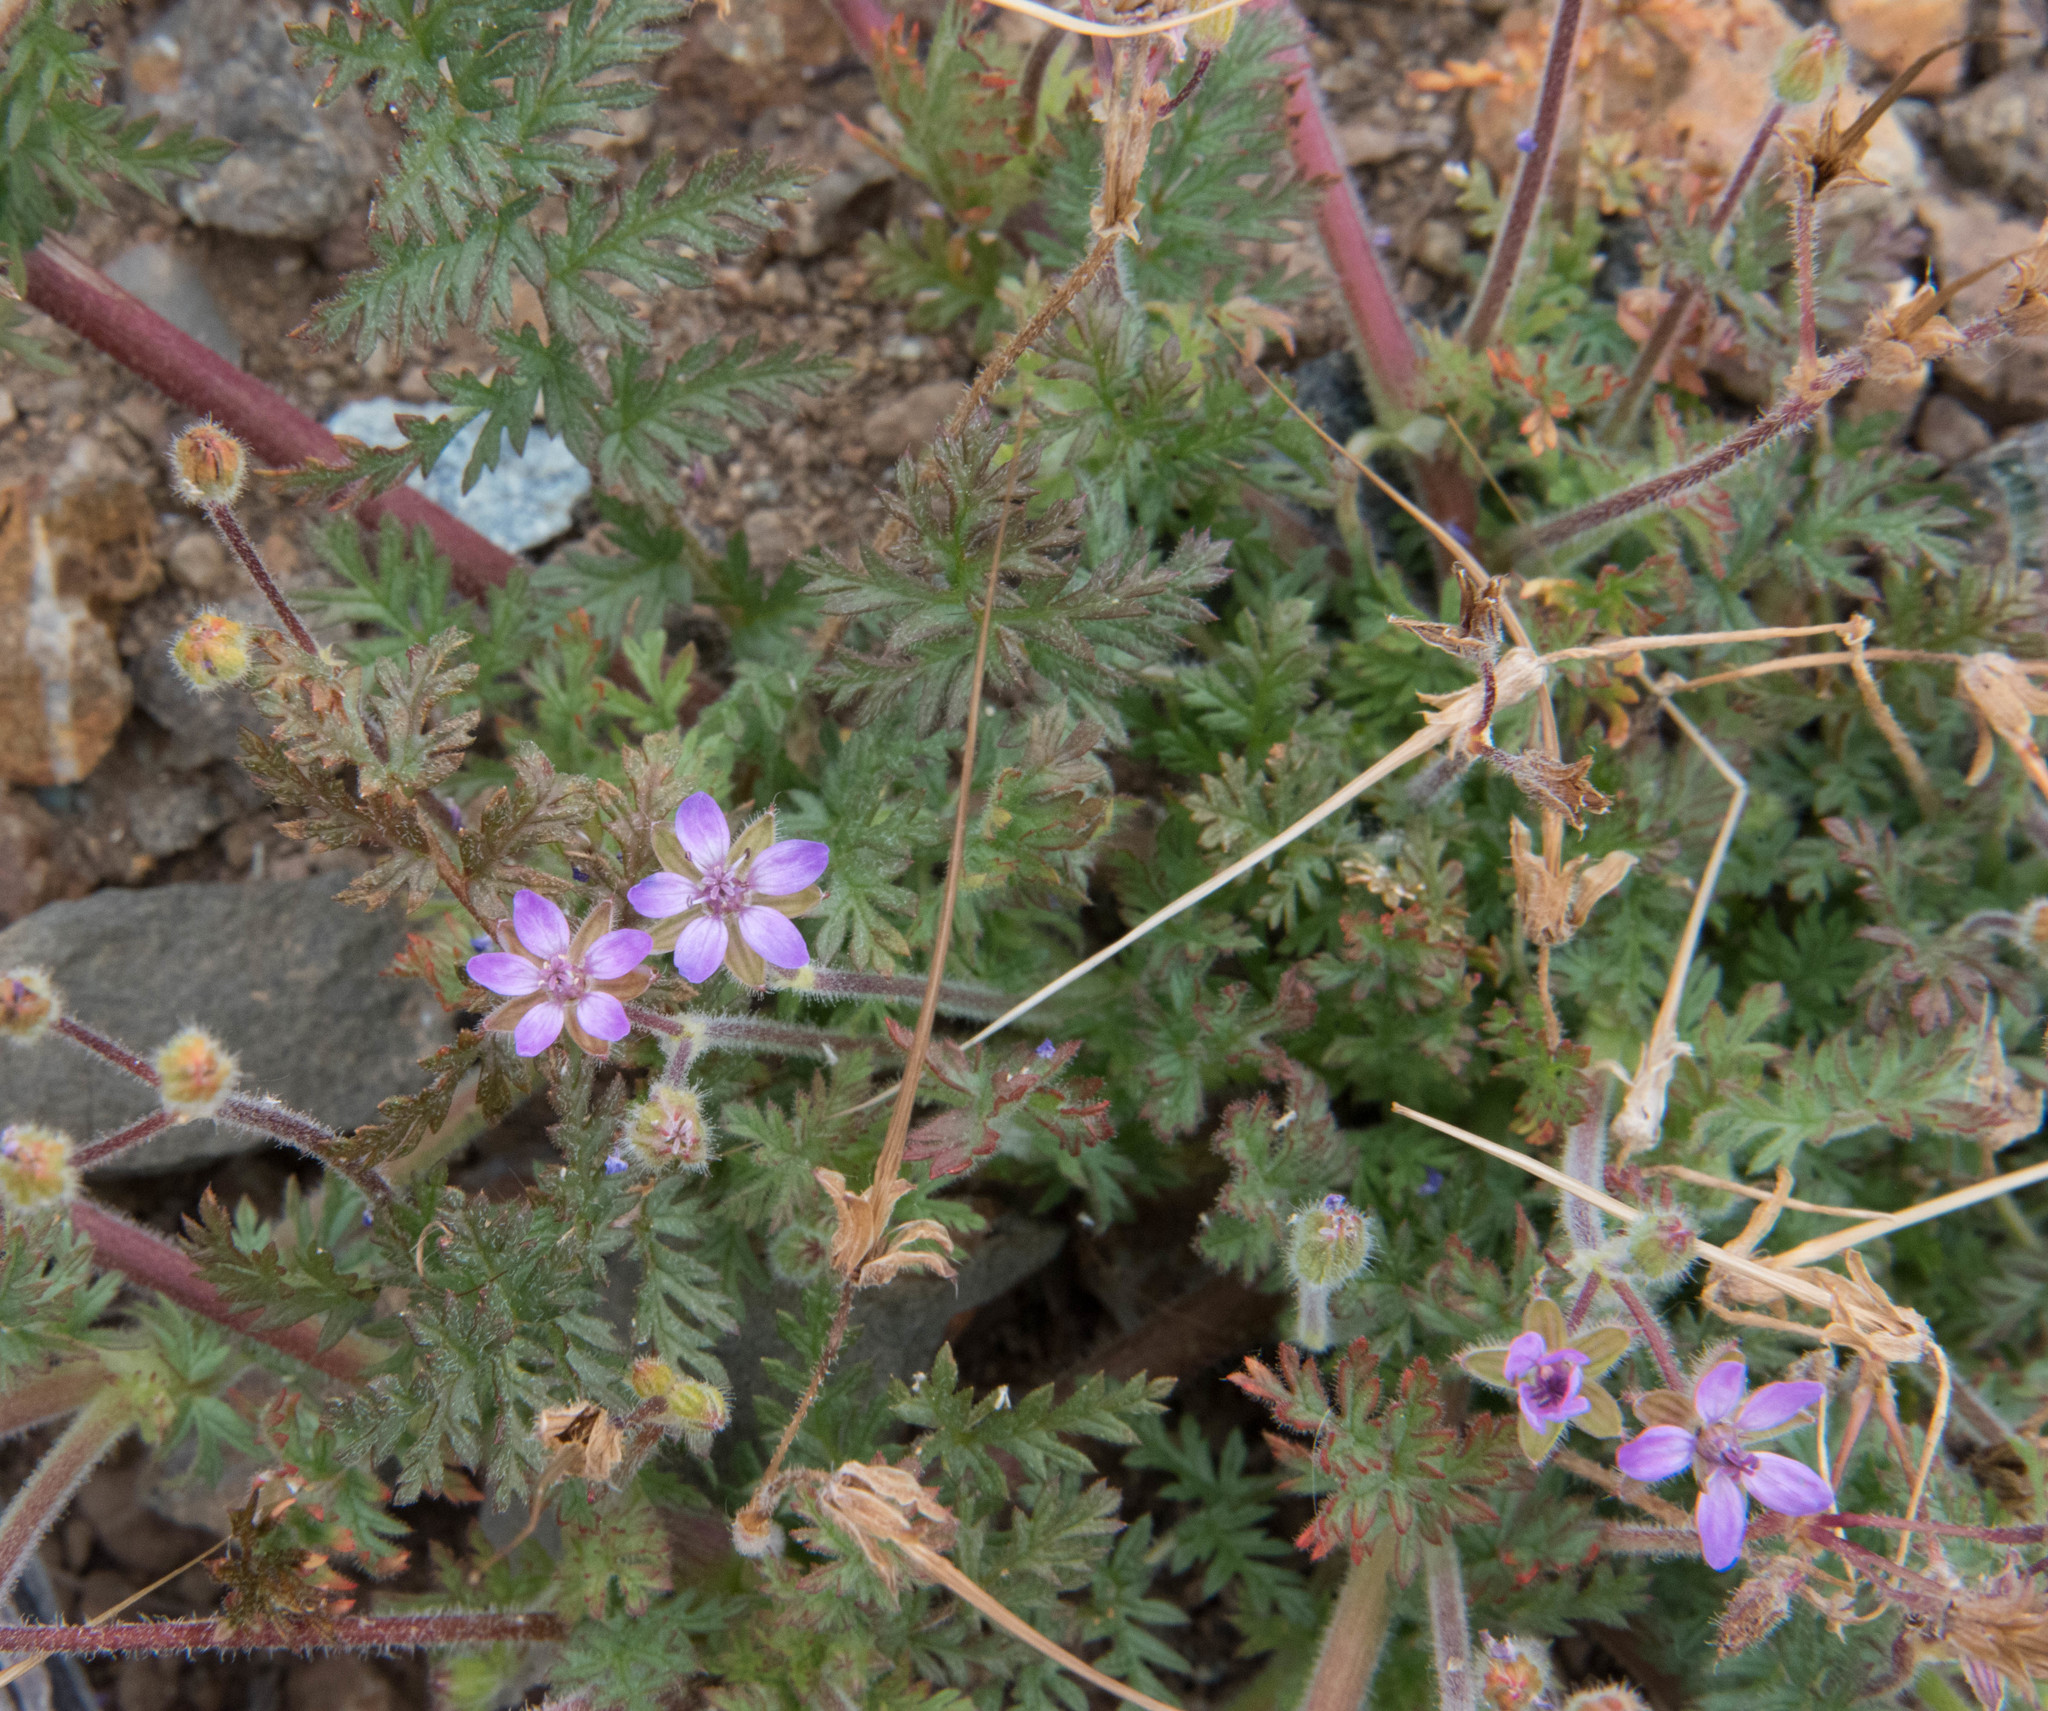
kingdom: Plantae
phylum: Tracheophyta
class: Magnoliopsida
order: Geraniales
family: Geraniaceae
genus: Erodium
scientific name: Erodium cicutarium
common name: Common stork's-bill
